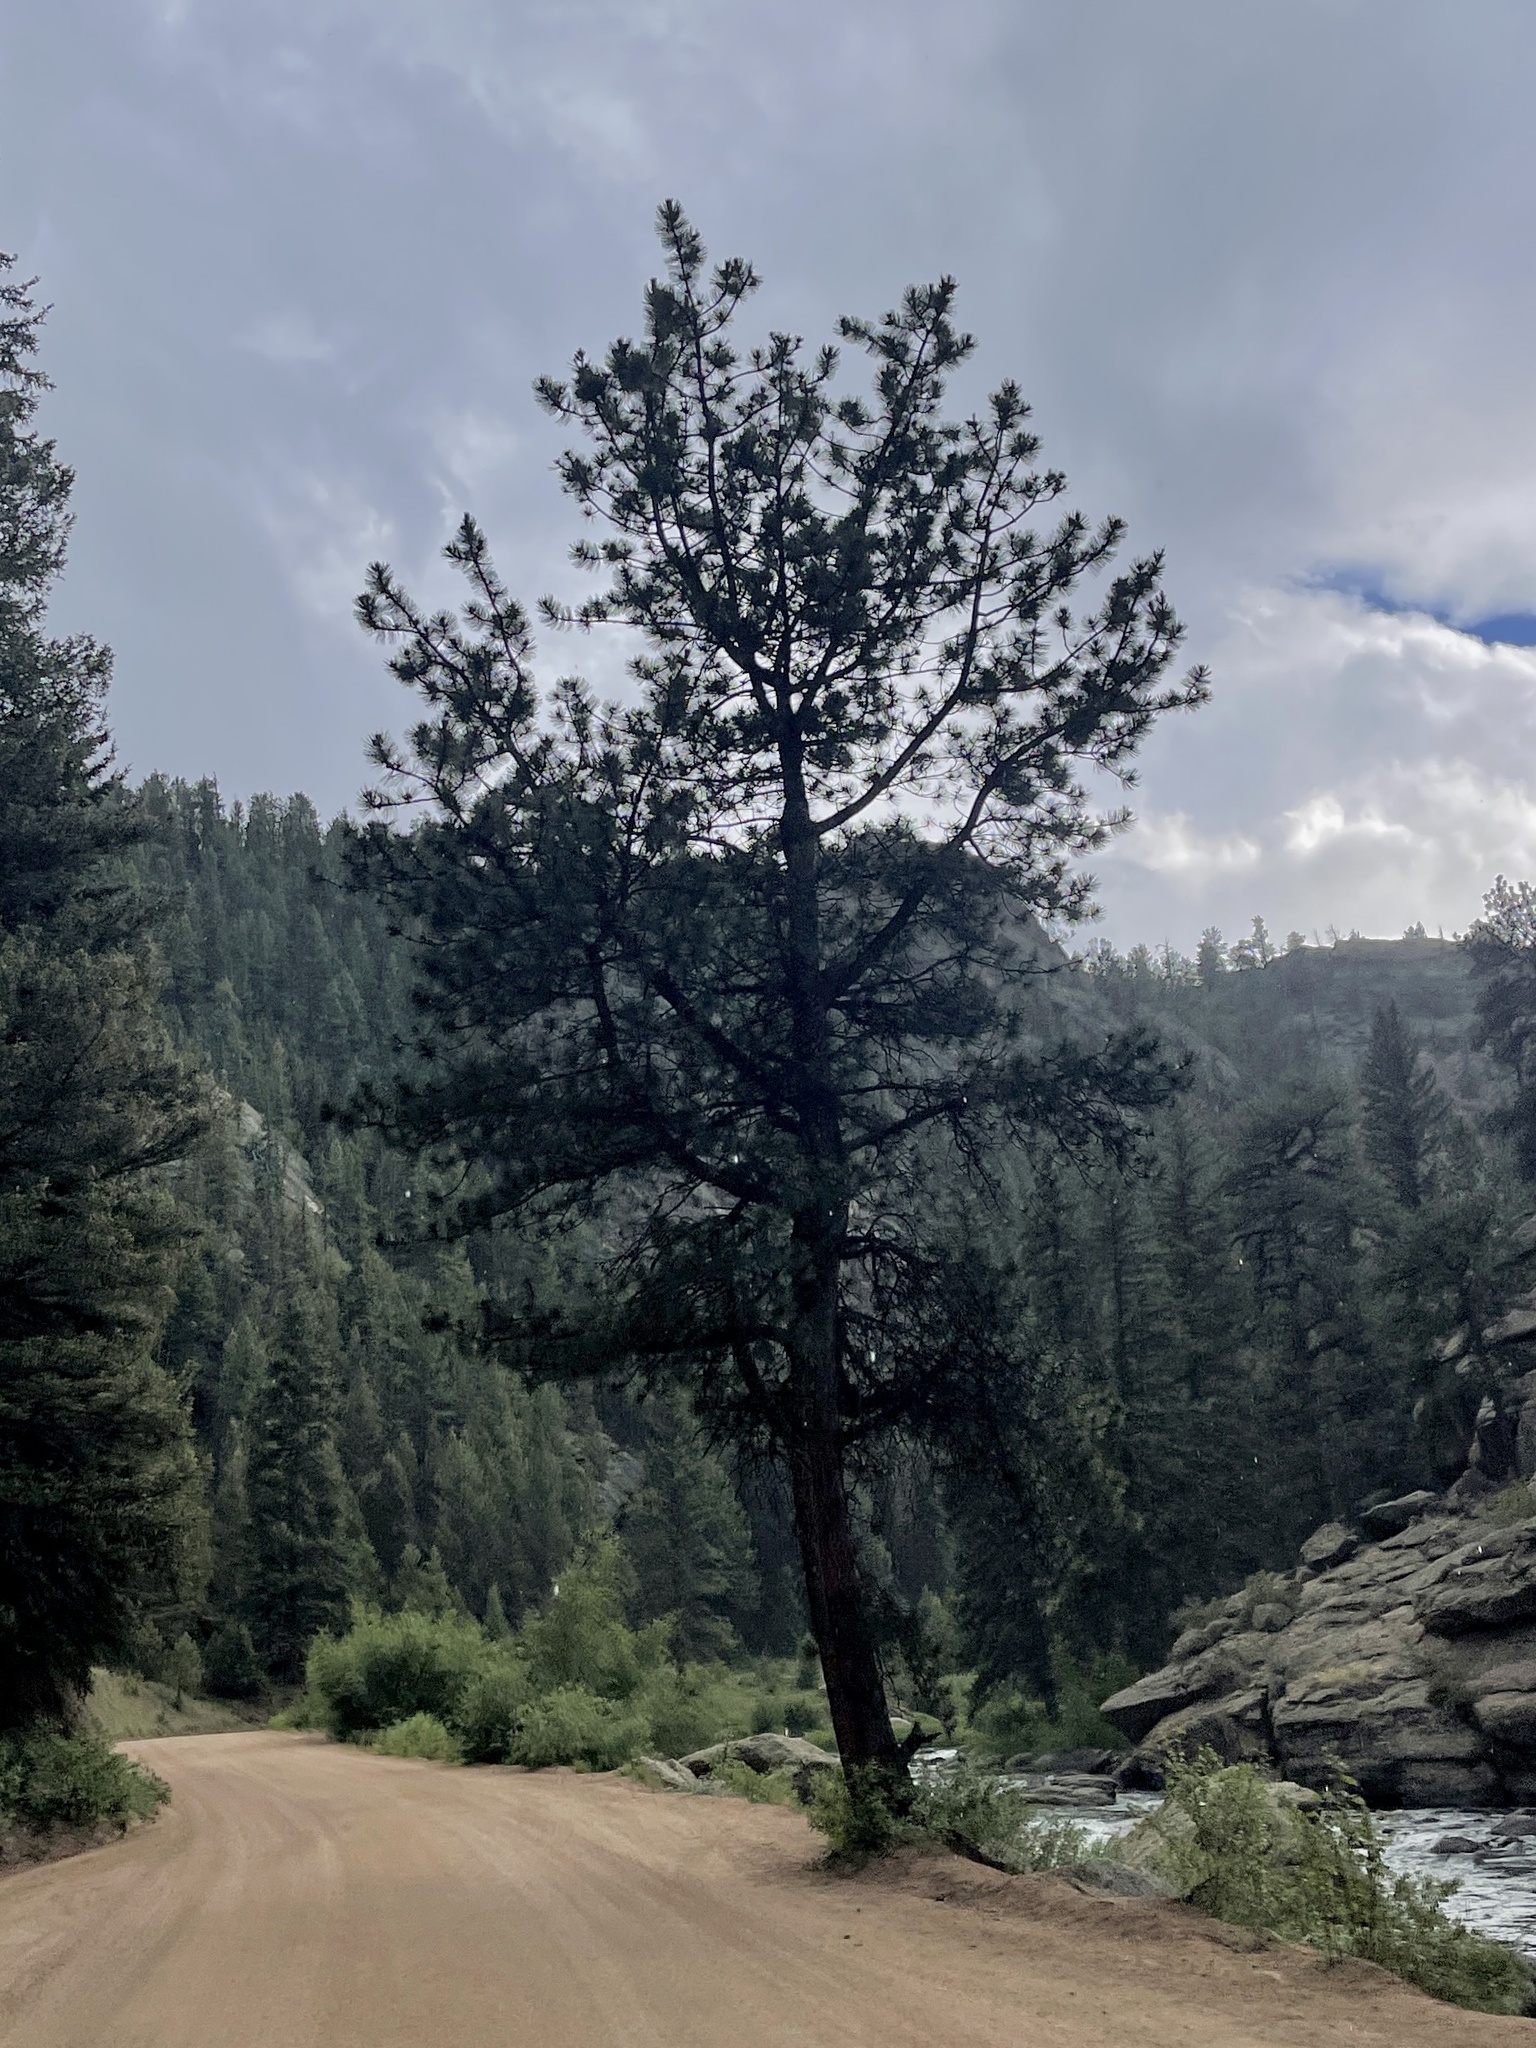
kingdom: Plantae
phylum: Tracheophyta
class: Pinopsida
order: Pinales
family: Pinaceae
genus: Pinus
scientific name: Pinus ponderosa
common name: Western yellow-pine
